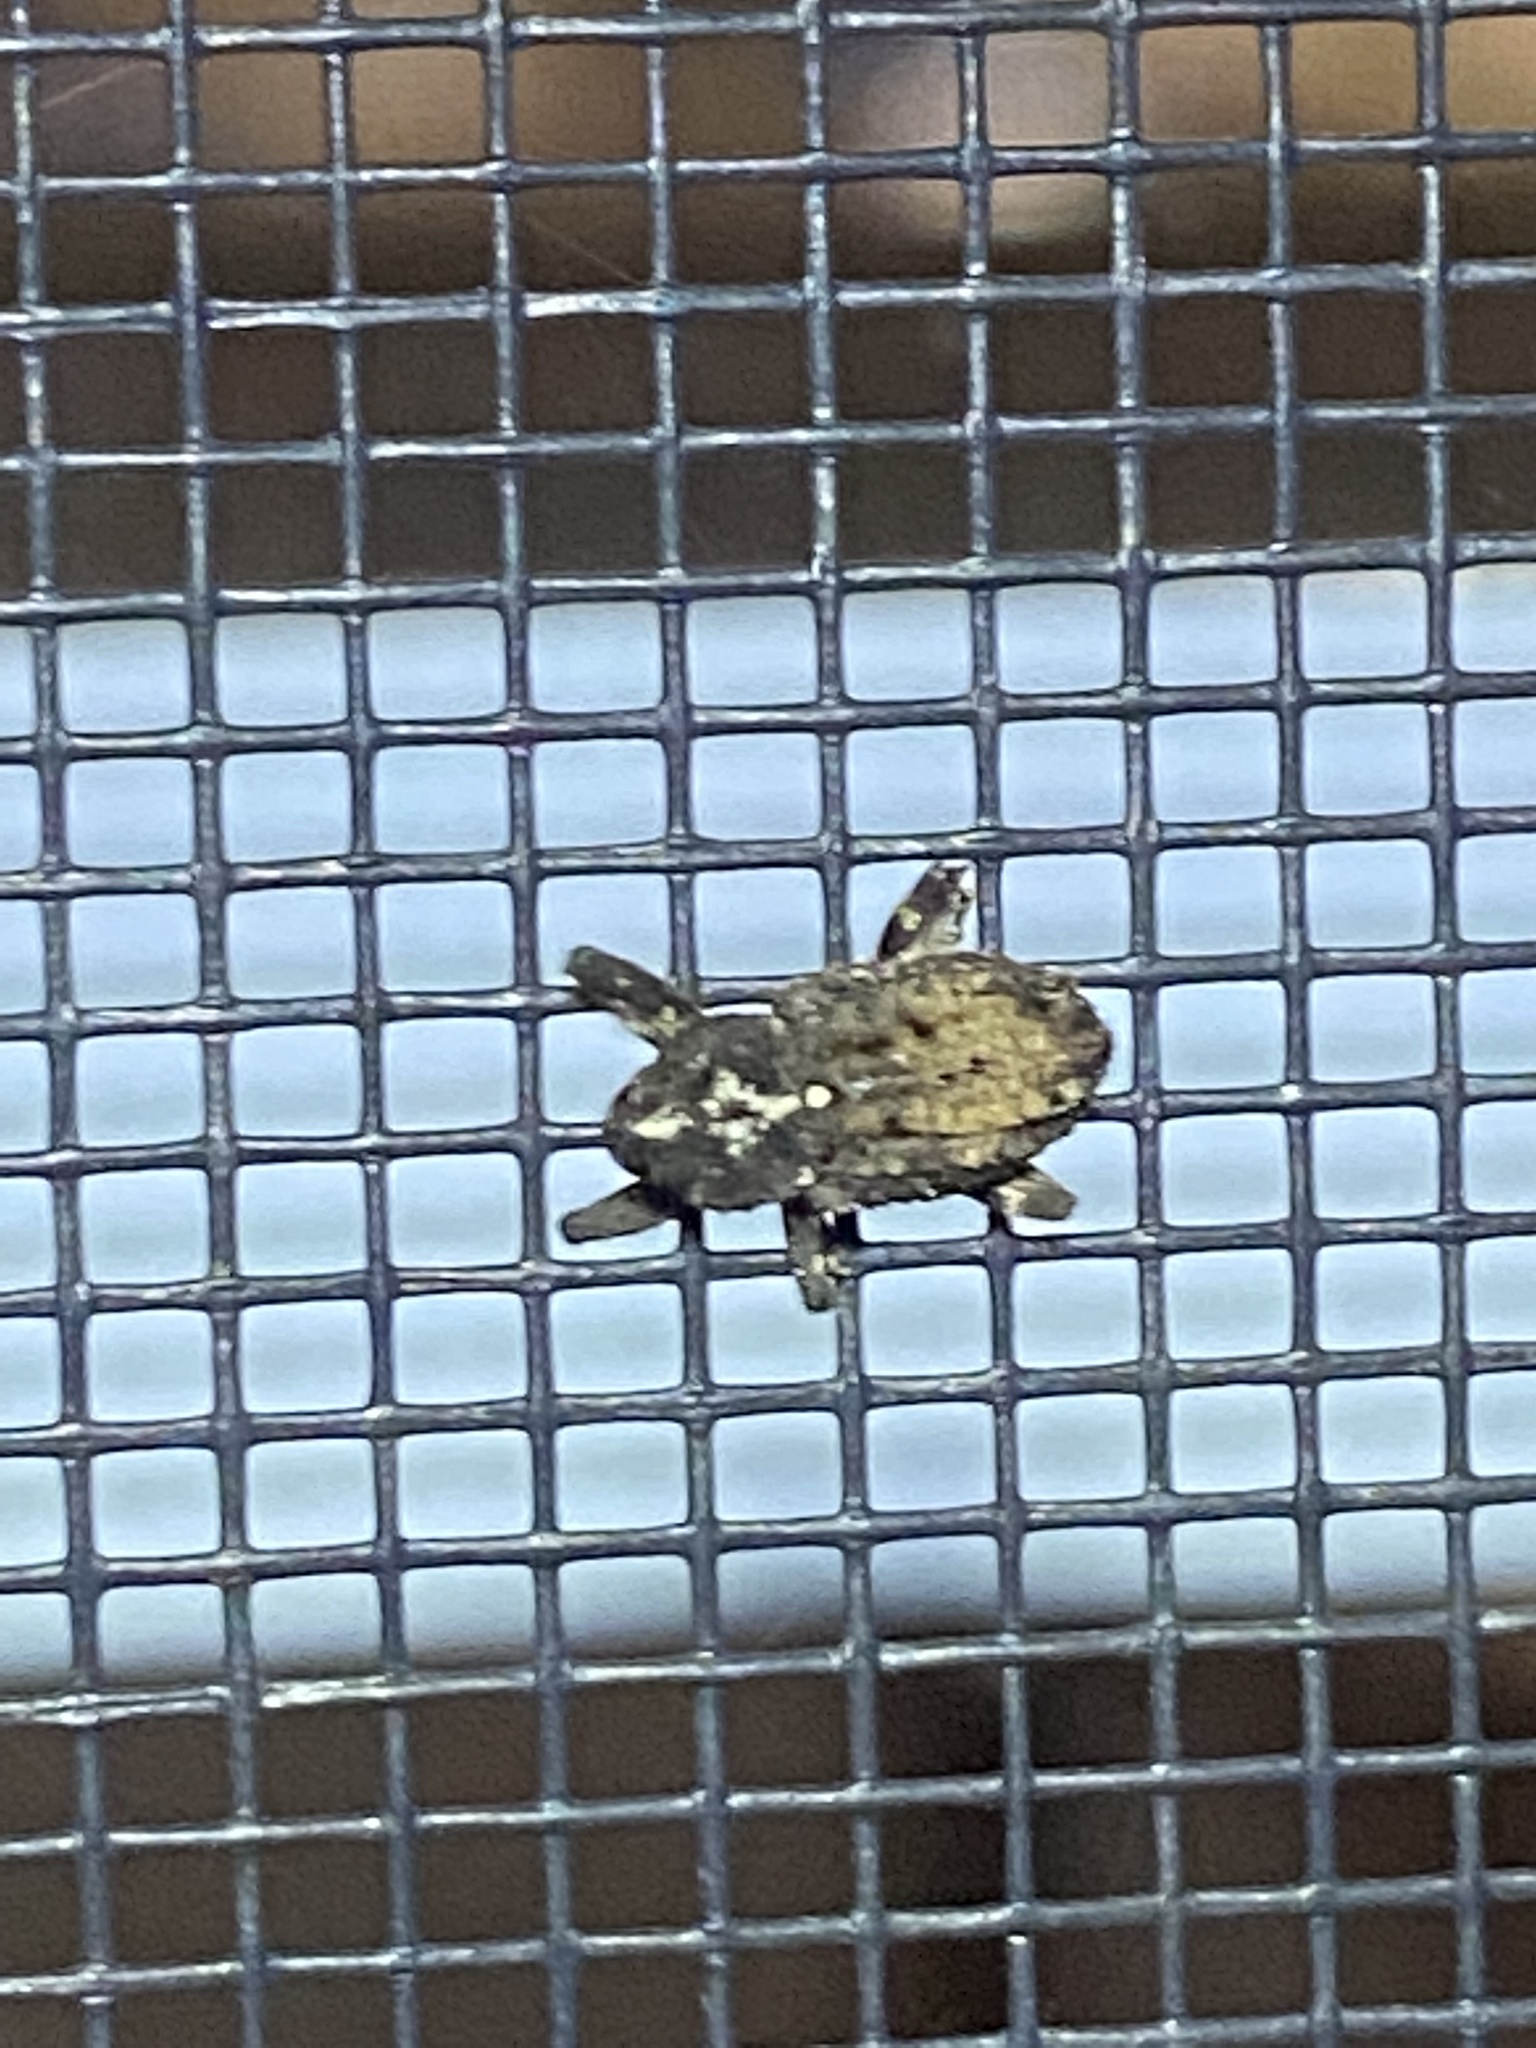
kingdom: Animalia
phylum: Arthropoda
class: Insecta
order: Coleoptera
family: Curculionidae
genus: Cophes
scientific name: Cophes obtentus
